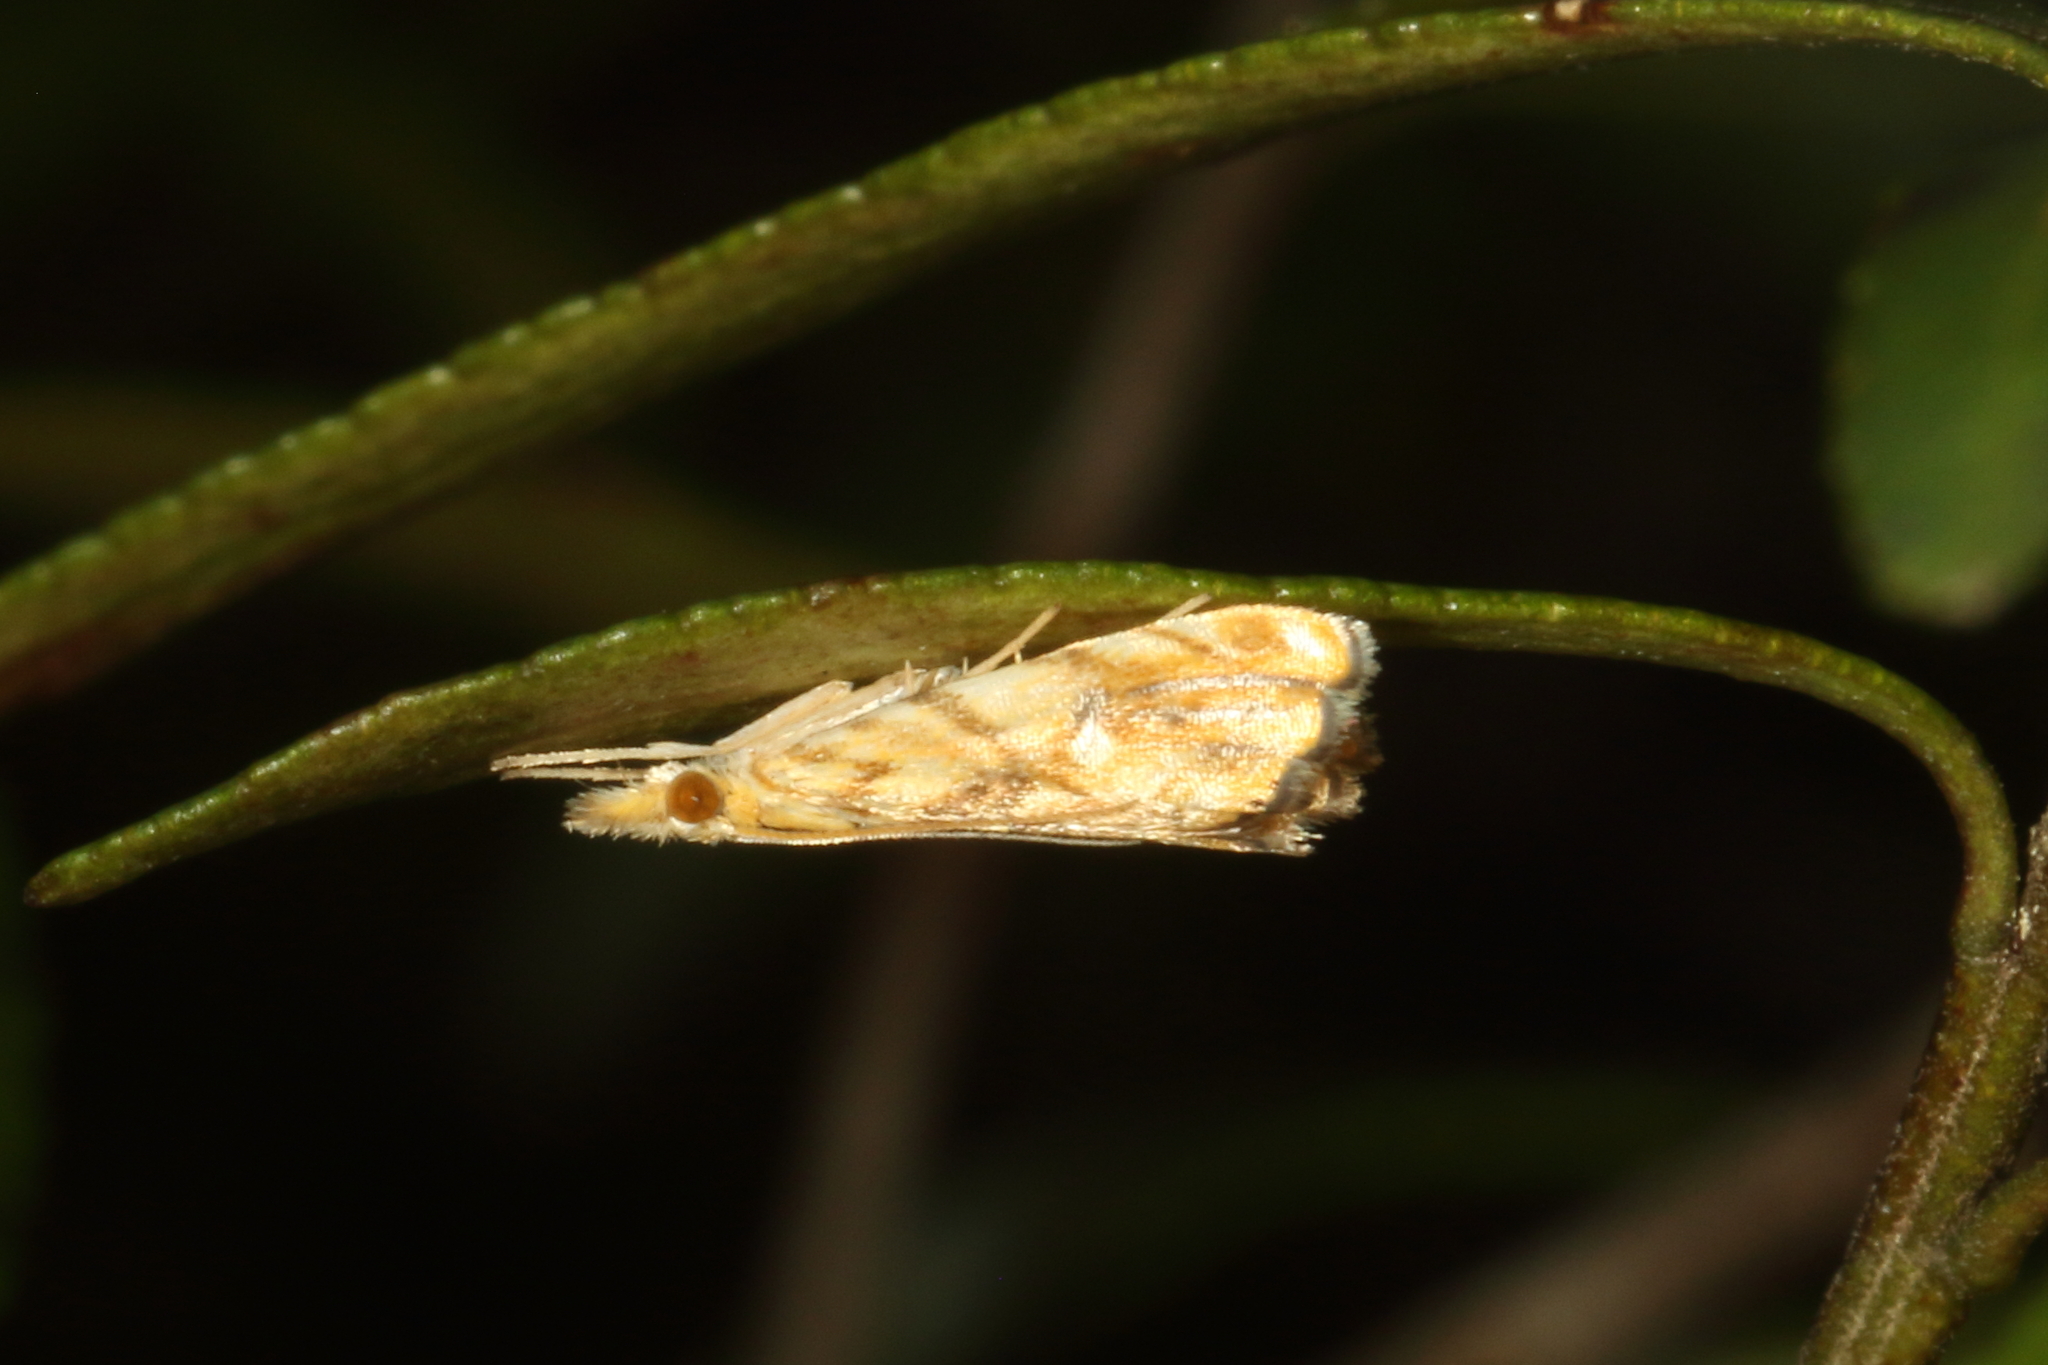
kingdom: Animalia
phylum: Arthropoda
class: Insecta
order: Lepidoptera
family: Crambidae
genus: Glaucocharis
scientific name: Glaucocharis selenaea
